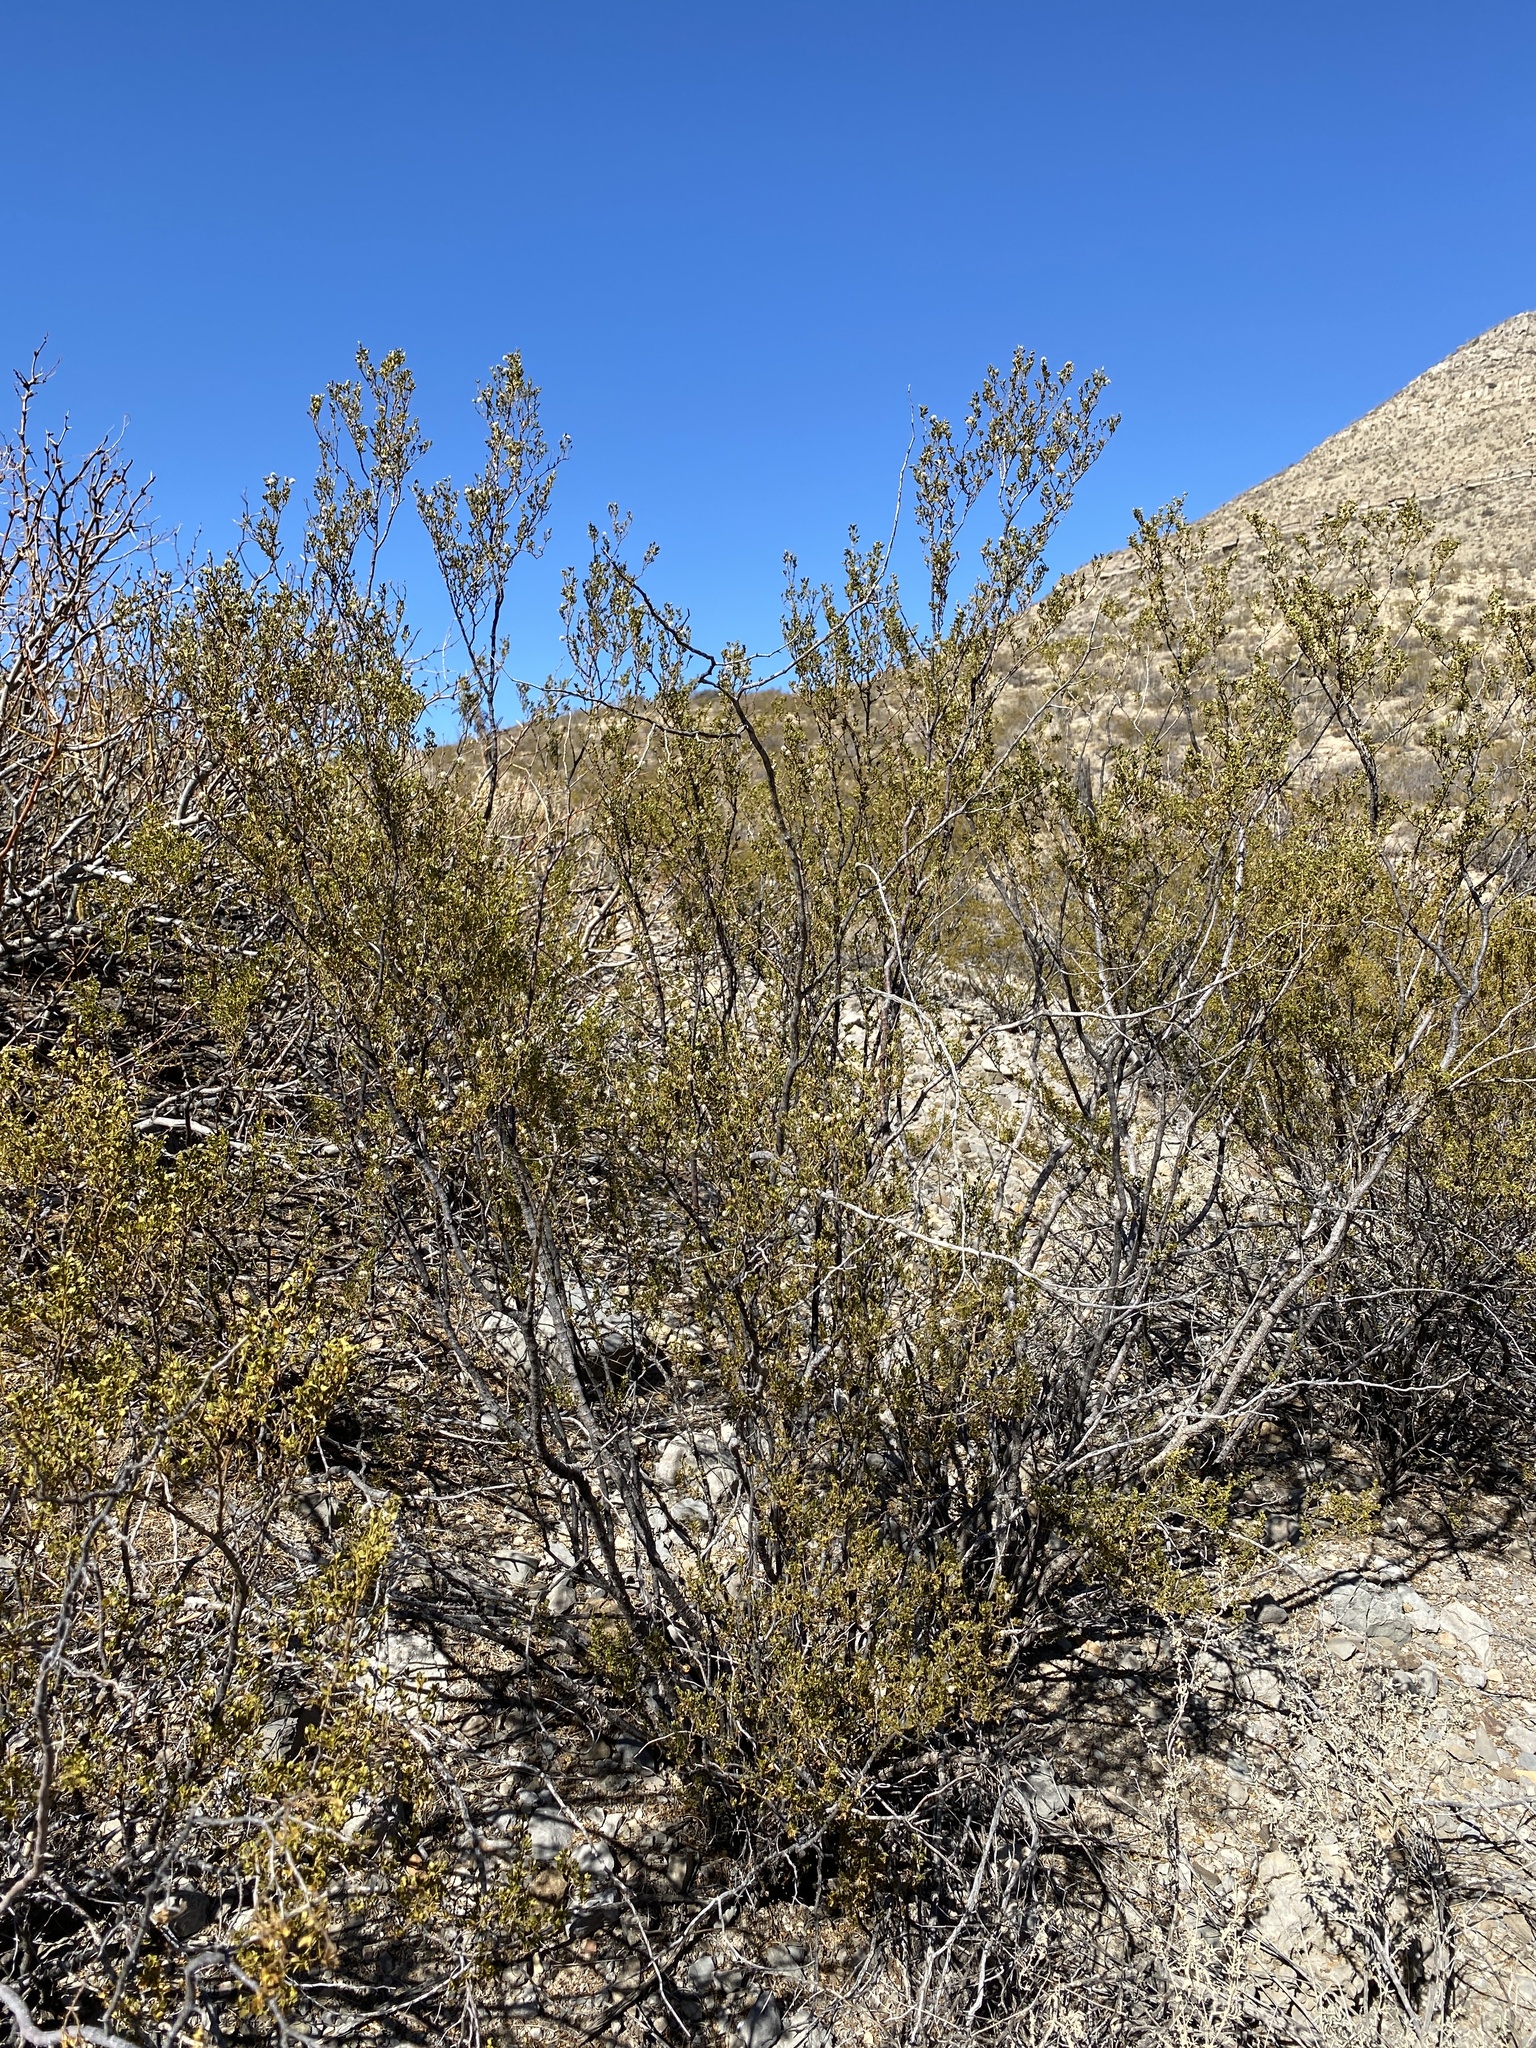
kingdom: Plantae
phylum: Tracheophyta
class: Magnoliopsida
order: Zygophyllales
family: Zygophyllaceae
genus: Larrea
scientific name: Larrea tridentata
